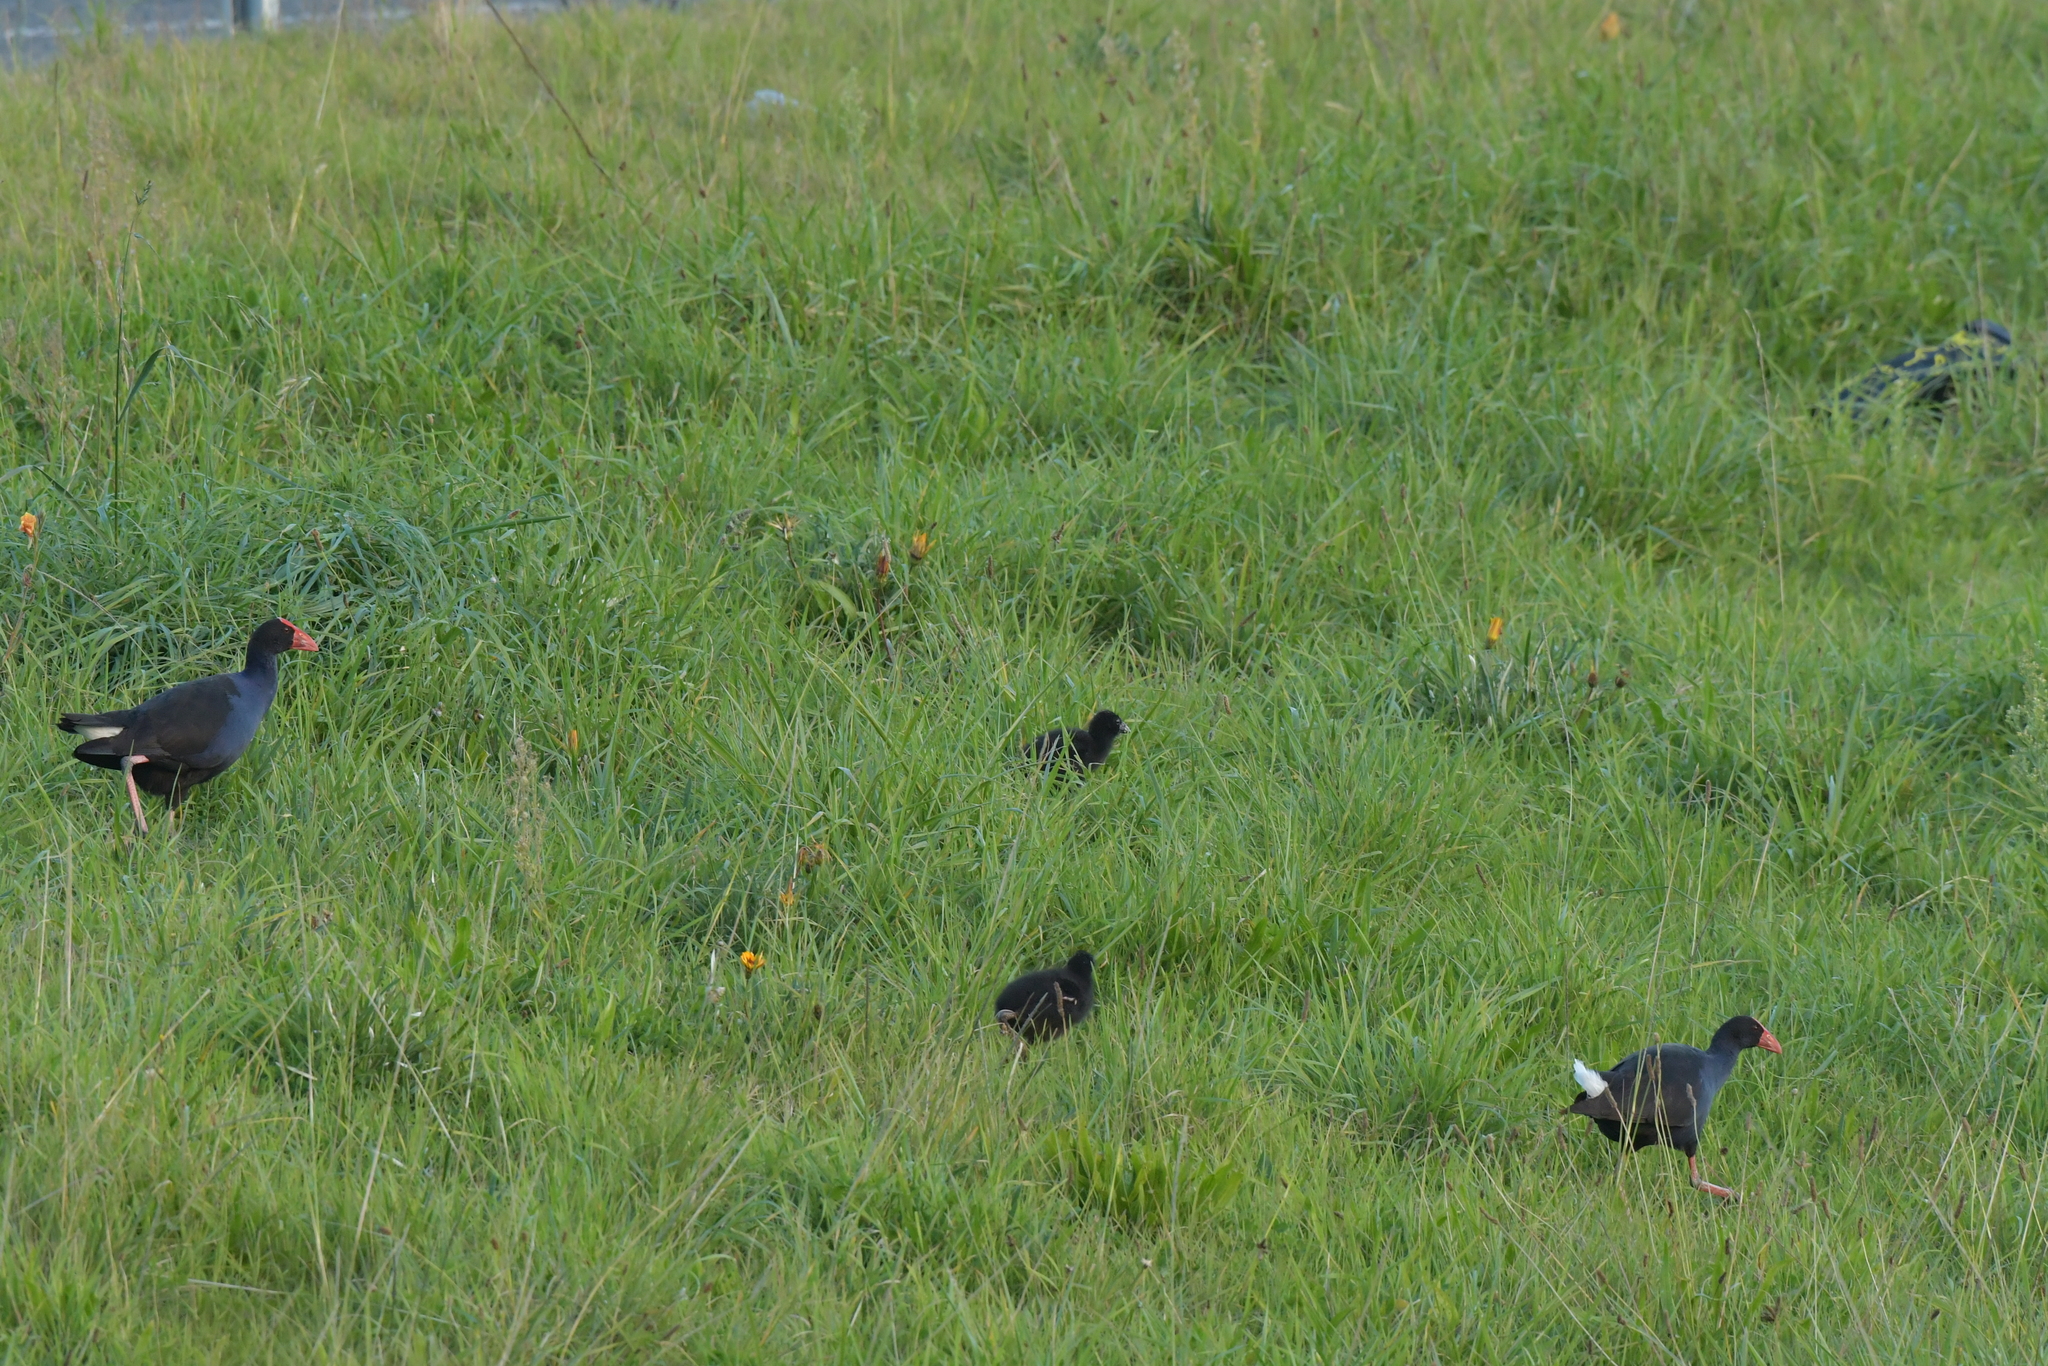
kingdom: Animalia
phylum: Chordata
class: Aves
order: Gruiformes
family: Rallidae
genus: Porphyrio
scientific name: Porphyrio melanotus
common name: Australasian swamphen
